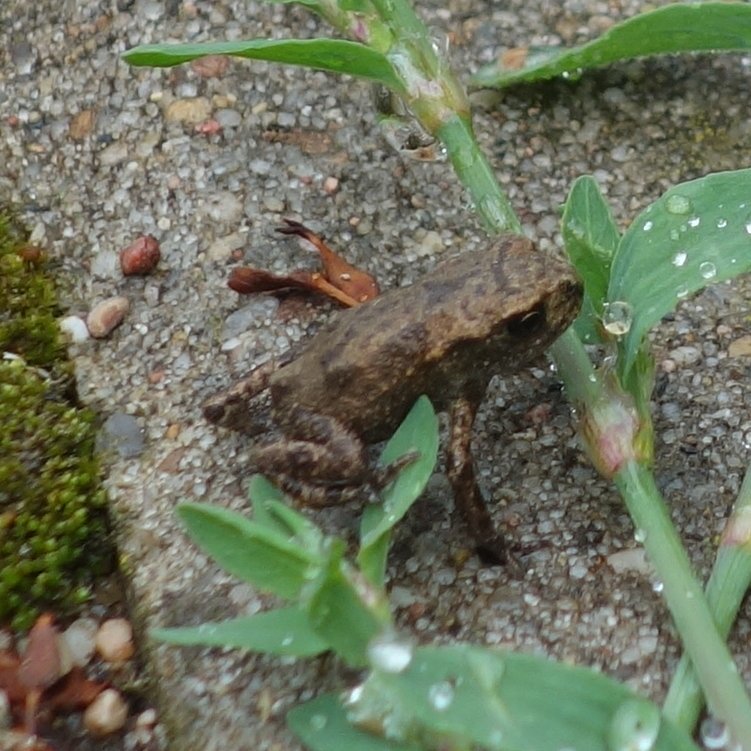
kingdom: Animalia
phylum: Chordata
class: Amphibia
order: Anura
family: Bufonidae
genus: Bufo
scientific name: Bufo bufo
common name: Common toad
